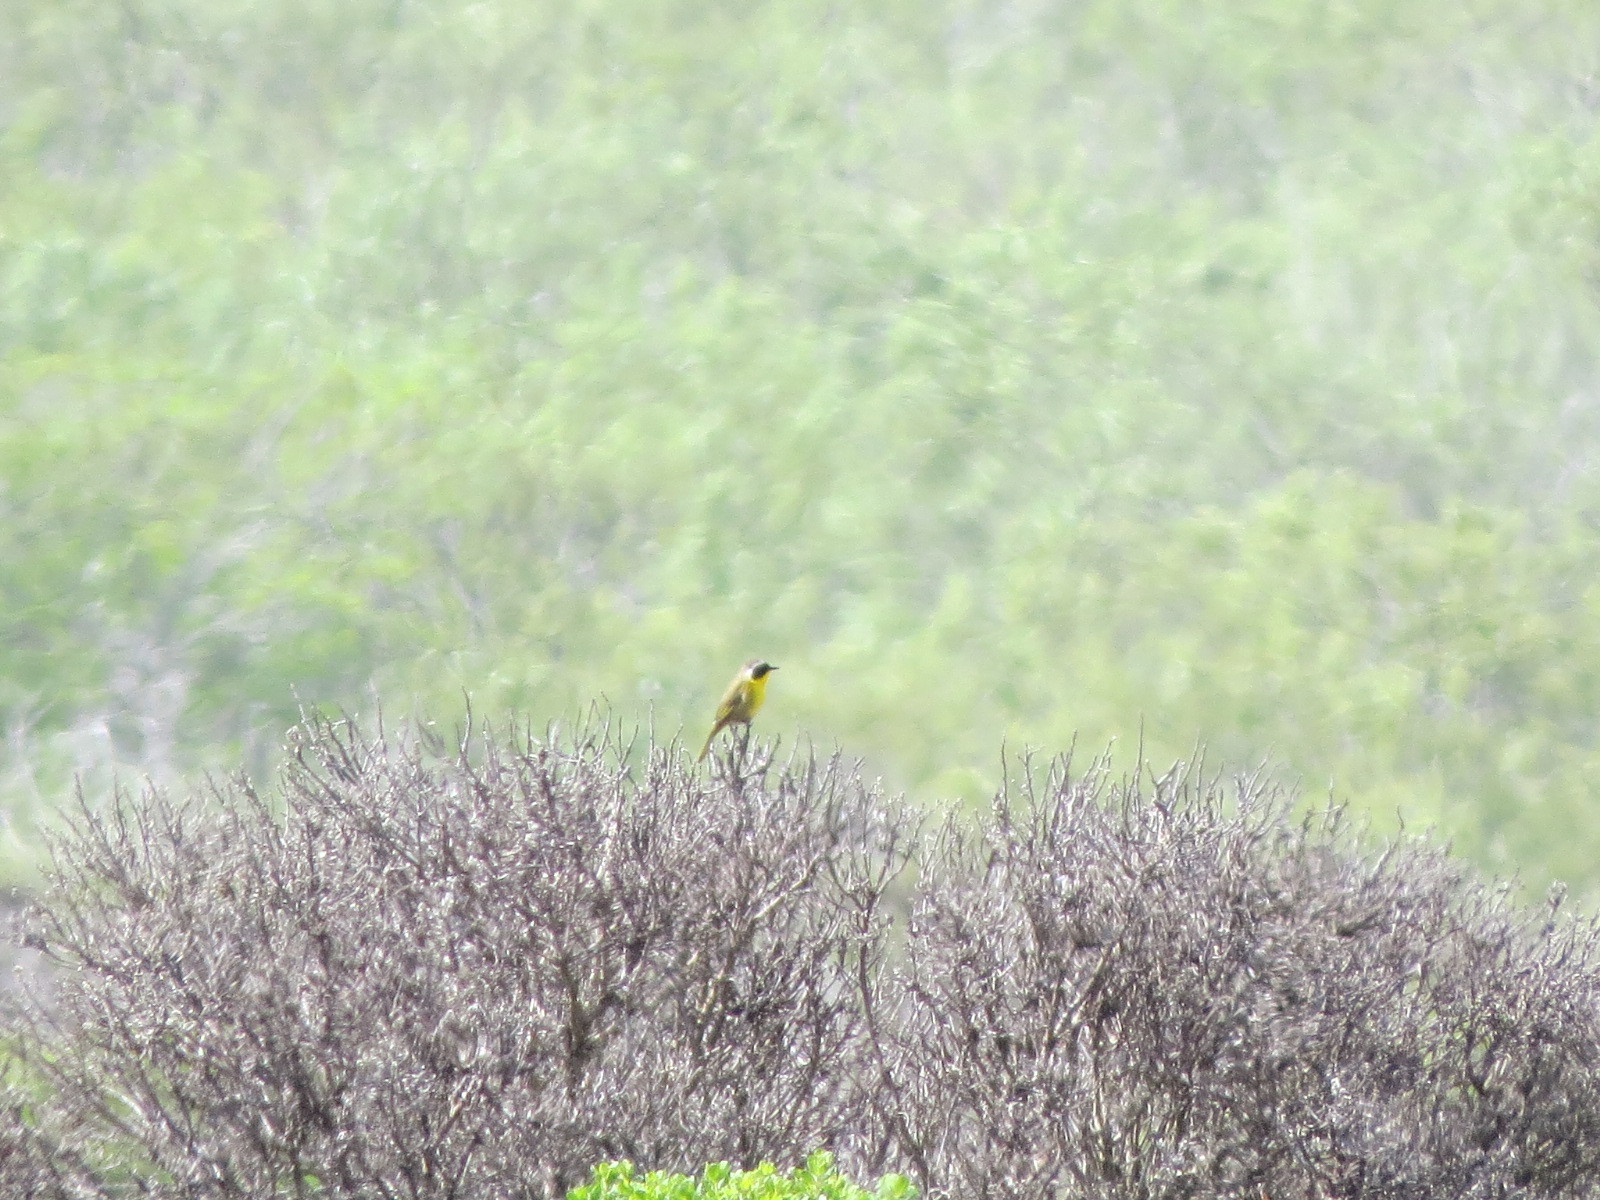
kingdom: Animalia
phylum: Chordata
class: Aves
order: Passeriformes
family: Parulidae
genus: Geothlypis
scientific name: Geothlypis trichas
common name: Common yellowthroat
